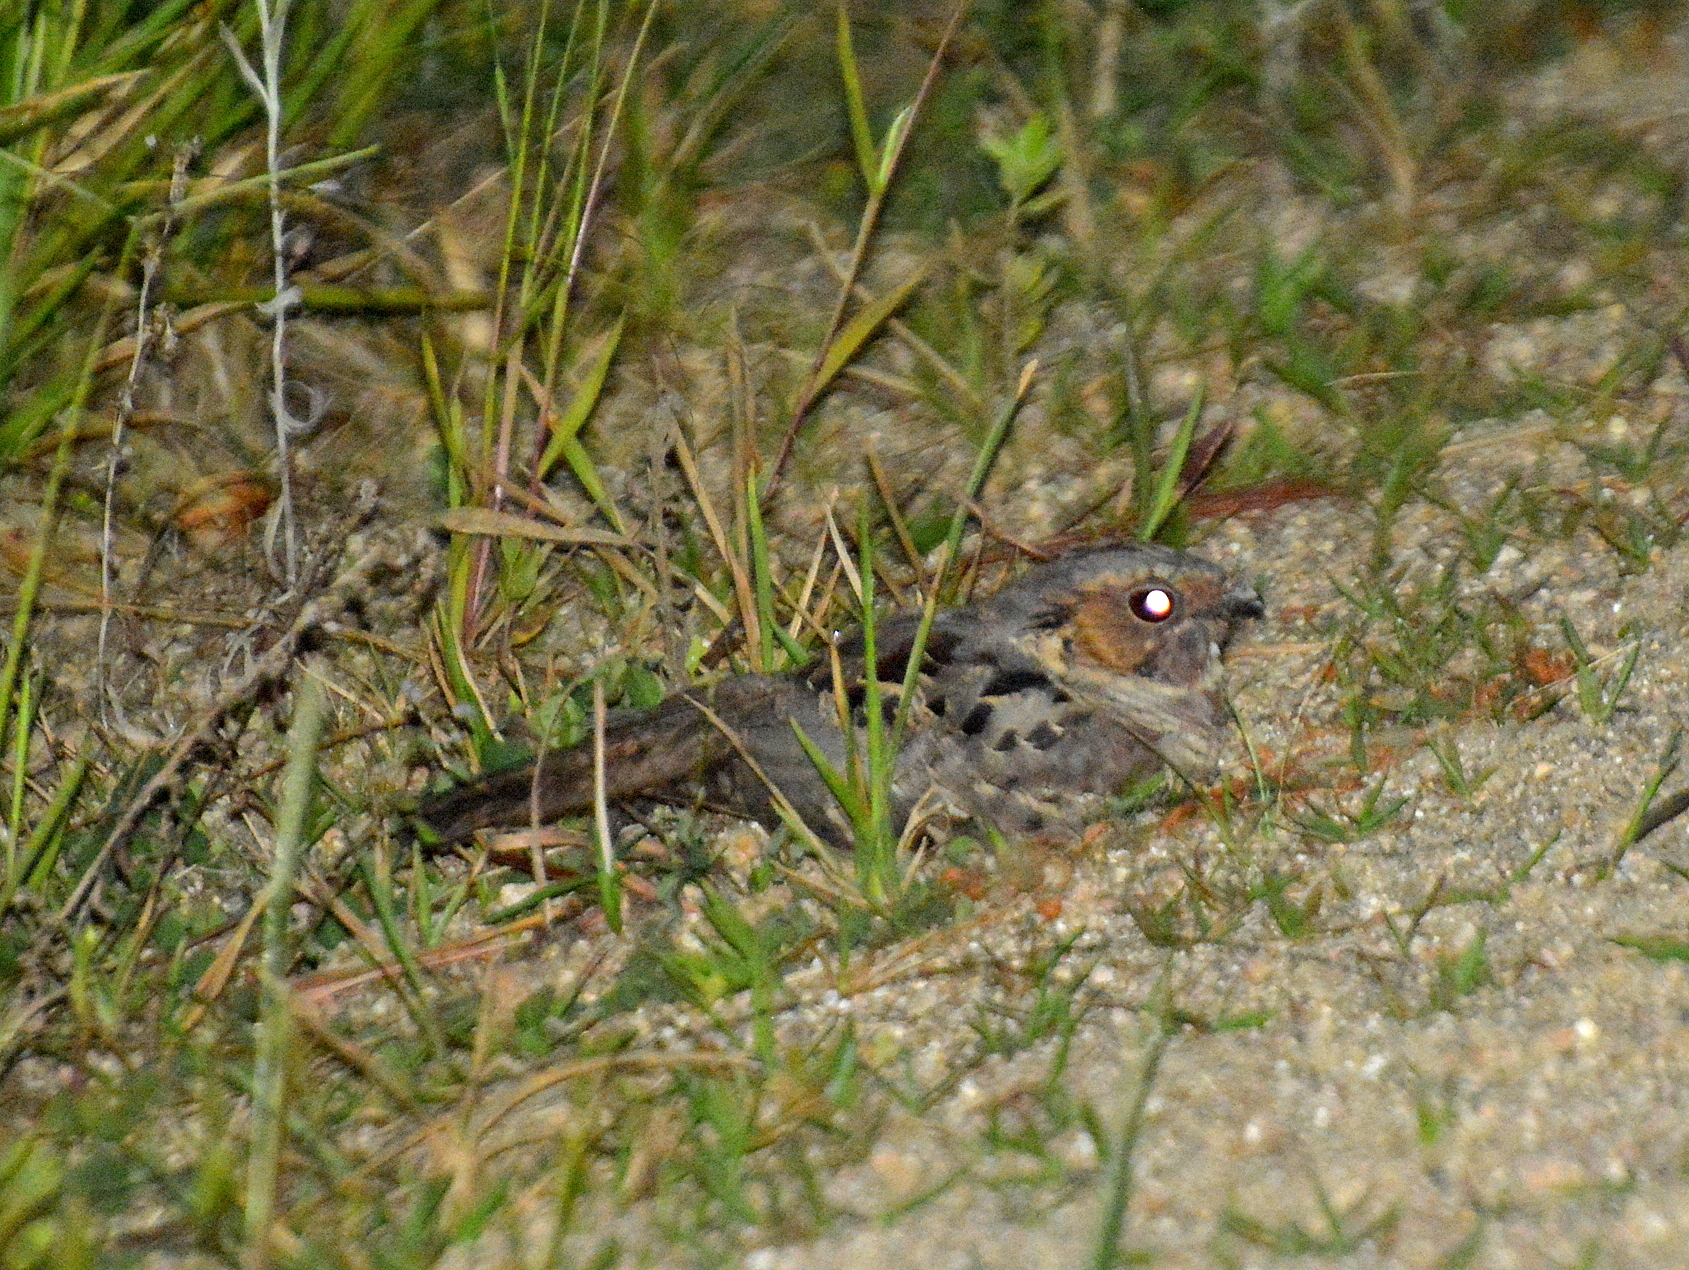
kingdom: Animalia
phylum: Chordata
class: Aves
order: Caprimulgiformes
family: Caprimulgidae
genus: Nyctidromus
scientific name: Nyctidromus albicollis
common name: Pauraque
